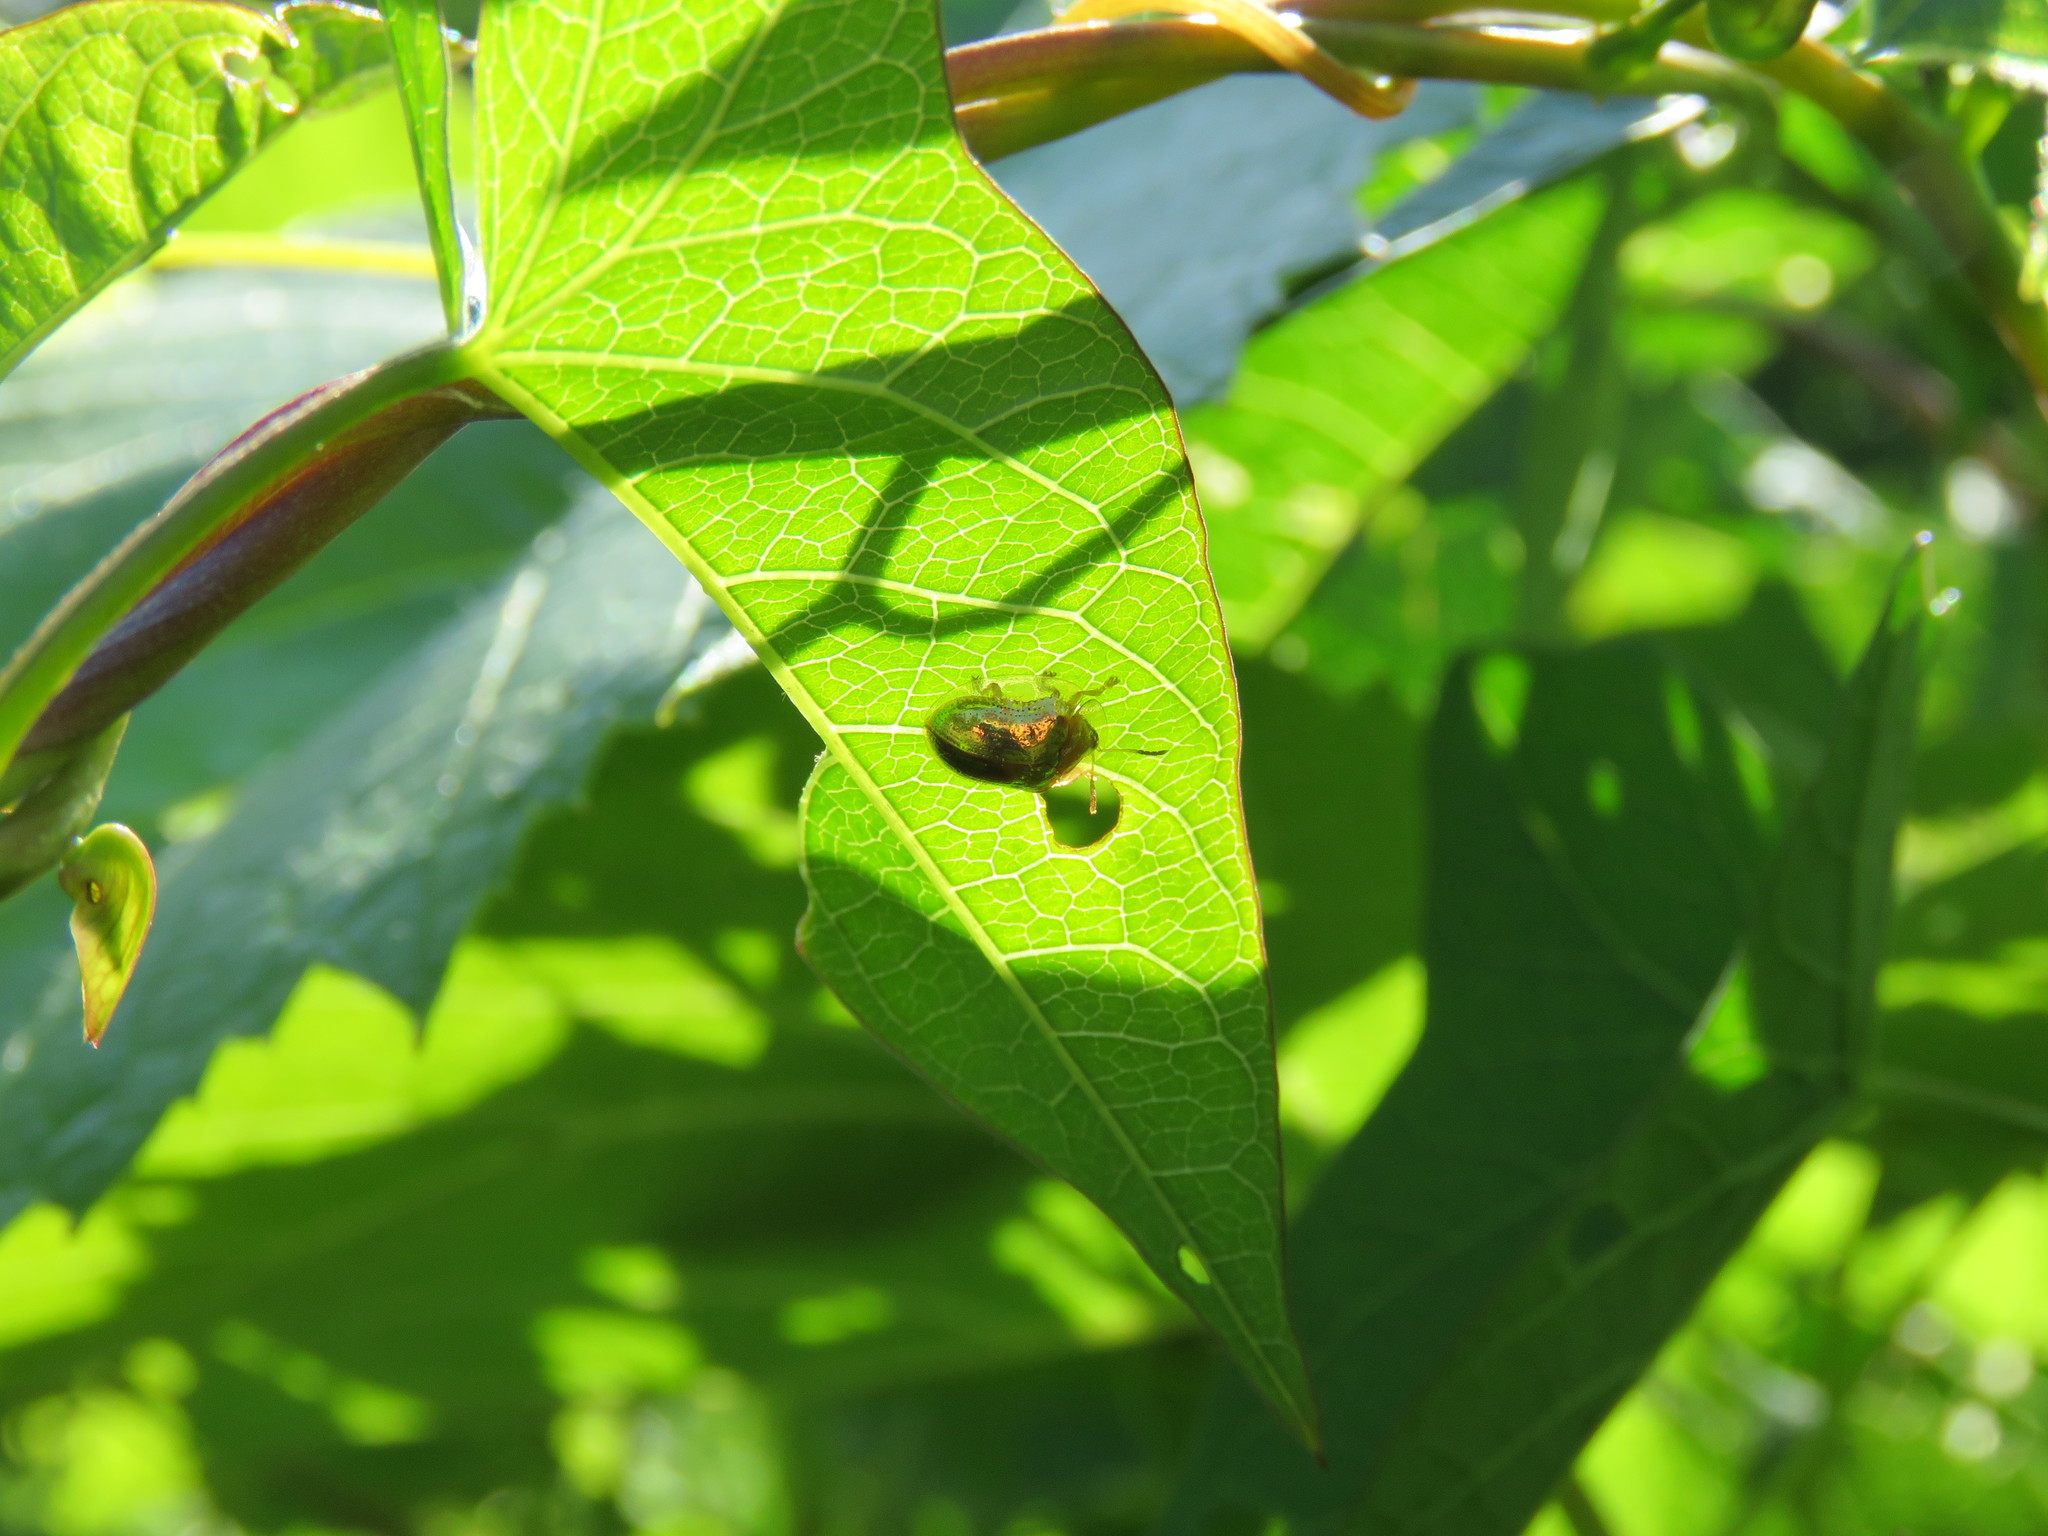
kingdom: Animalia
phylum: Arthropoda
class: Insecta
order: Coleoptera
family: Chrysomelidae
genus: Charidotella
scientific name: Charidotella sexpunctata
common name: Golden tortoise beetle
